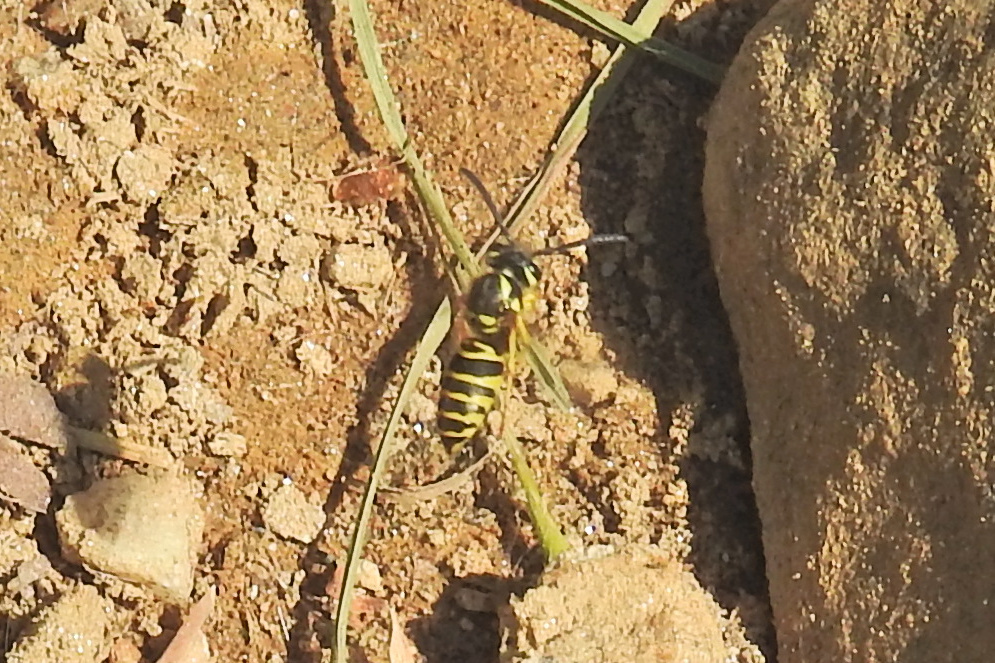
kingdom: Animalia
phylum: Arthropoda
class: Insecta
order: Hymenoptera
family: Vespidae
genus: Vespula
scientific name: Vespula maculifrons
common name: Eastern yellowjacket
